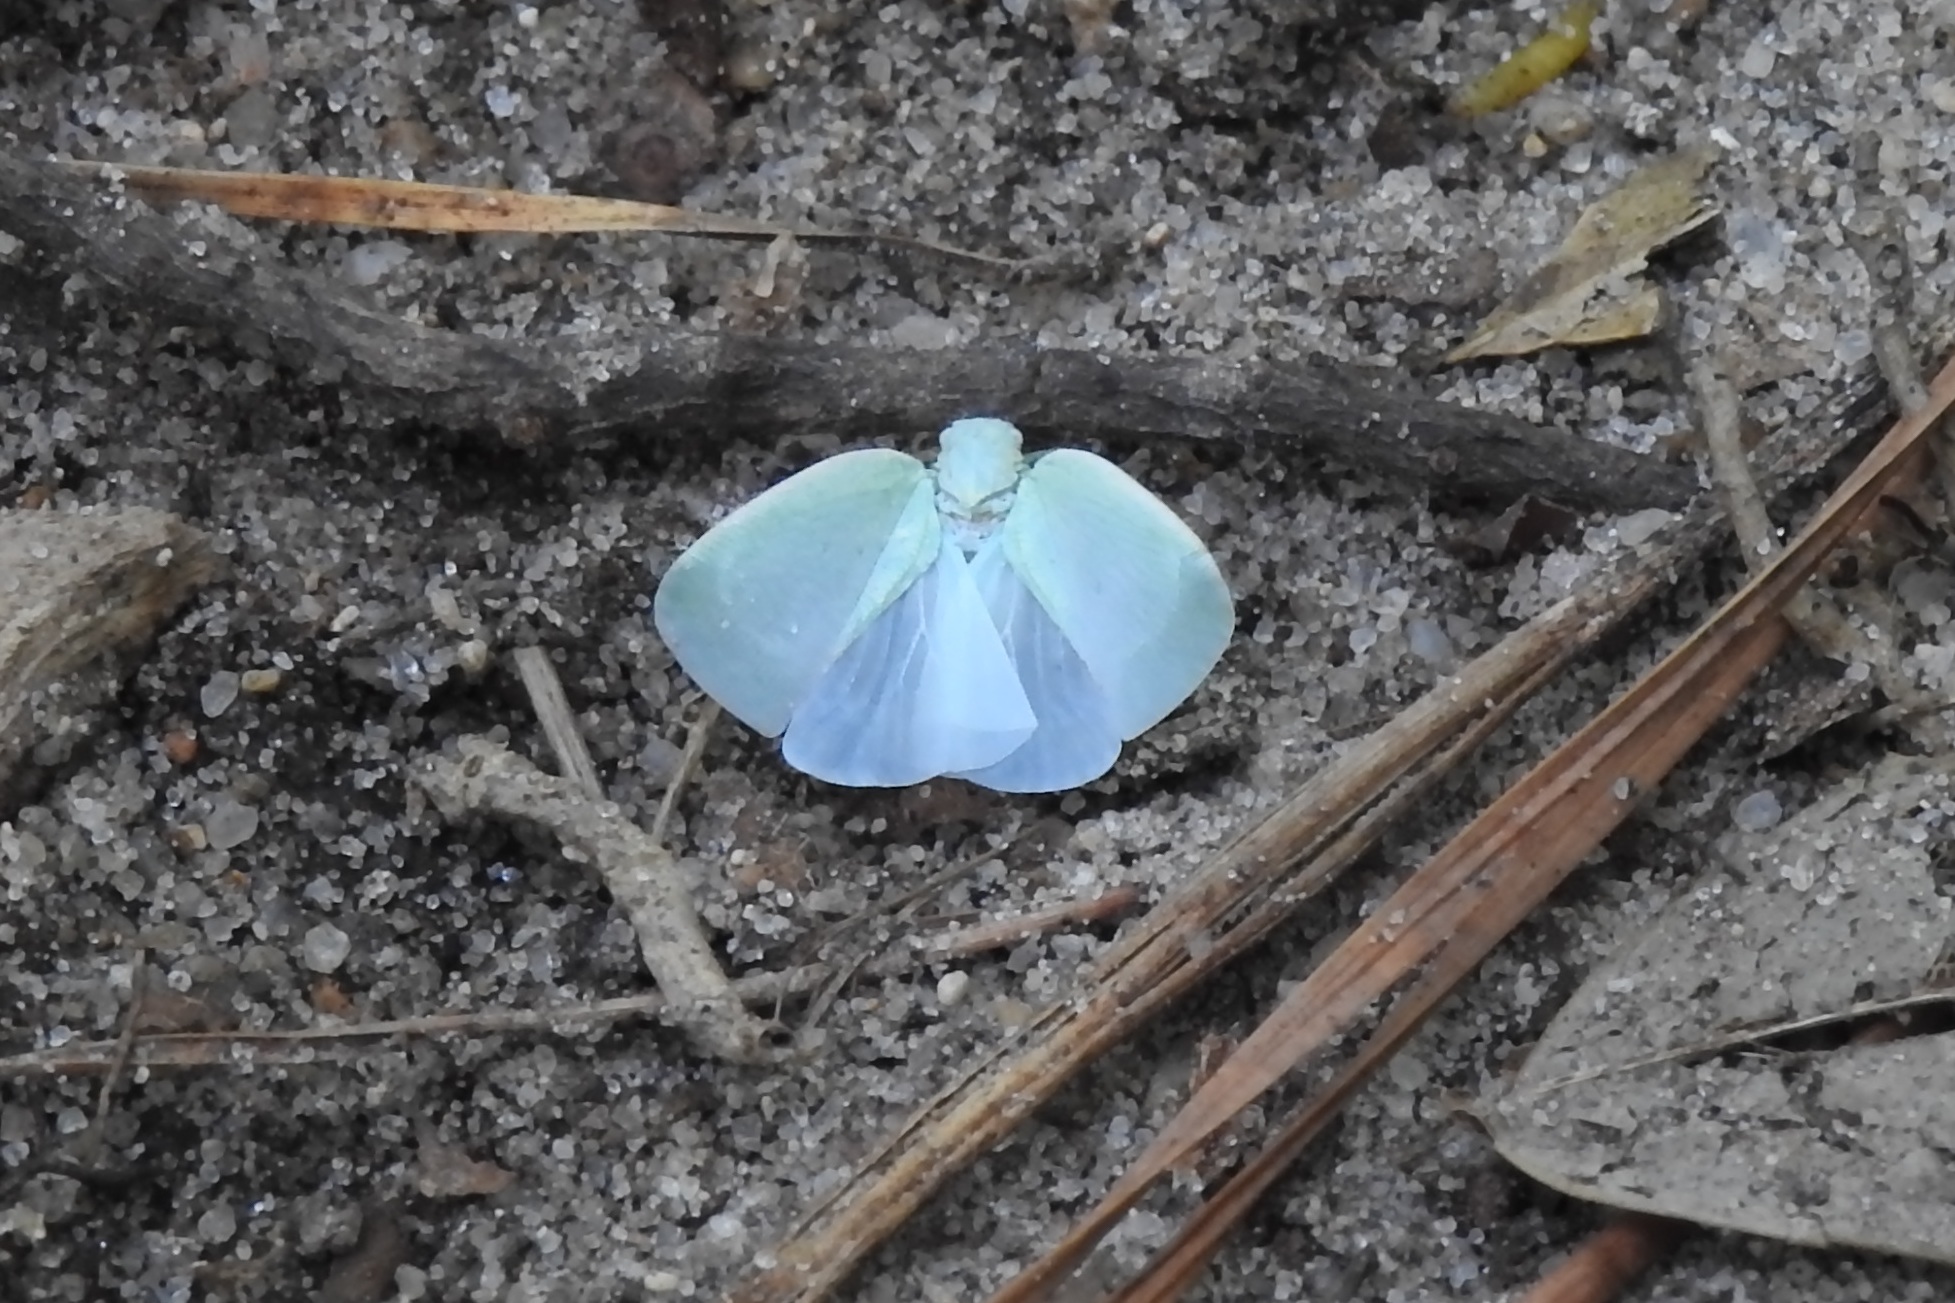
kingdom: Animalia
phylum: Arthropoda
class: Insecta
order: Hemiptera
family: Flatidae
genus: Flatormenis
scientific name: Flatormenis proxima
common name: Northern flatid planthopper
